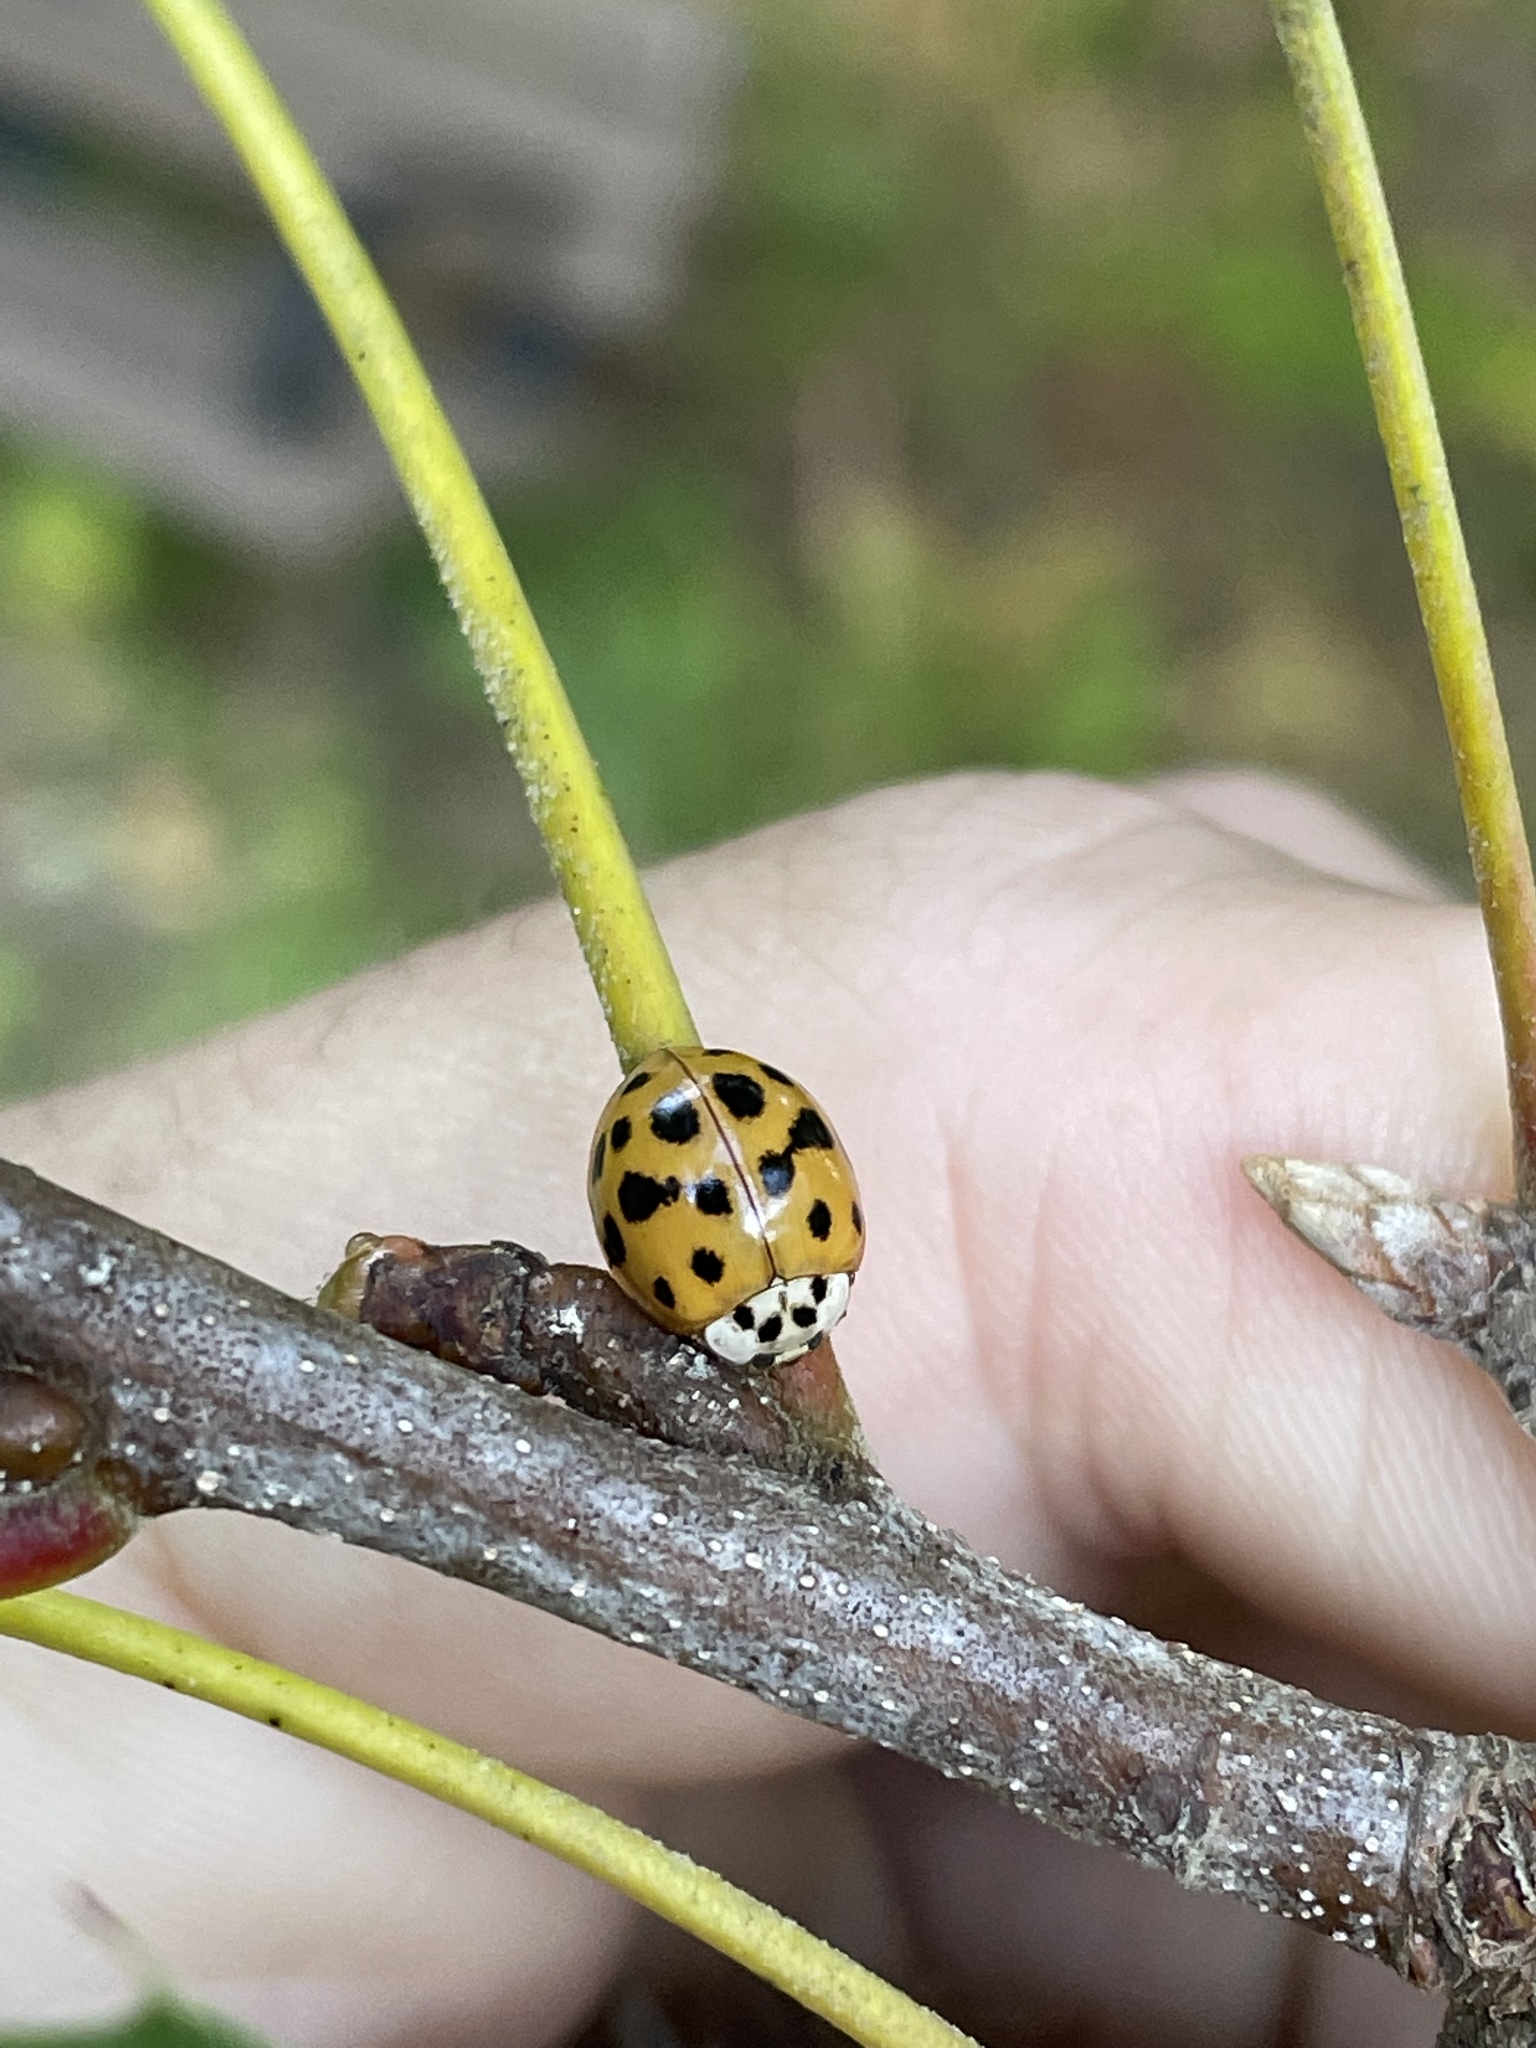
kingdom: Animalia
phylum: Arthropoda
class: Insecta
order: Coleoptera
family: Coccinellidae
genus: Harmonia
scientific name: Harmonia axyridis
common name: Harlequin ladybird
